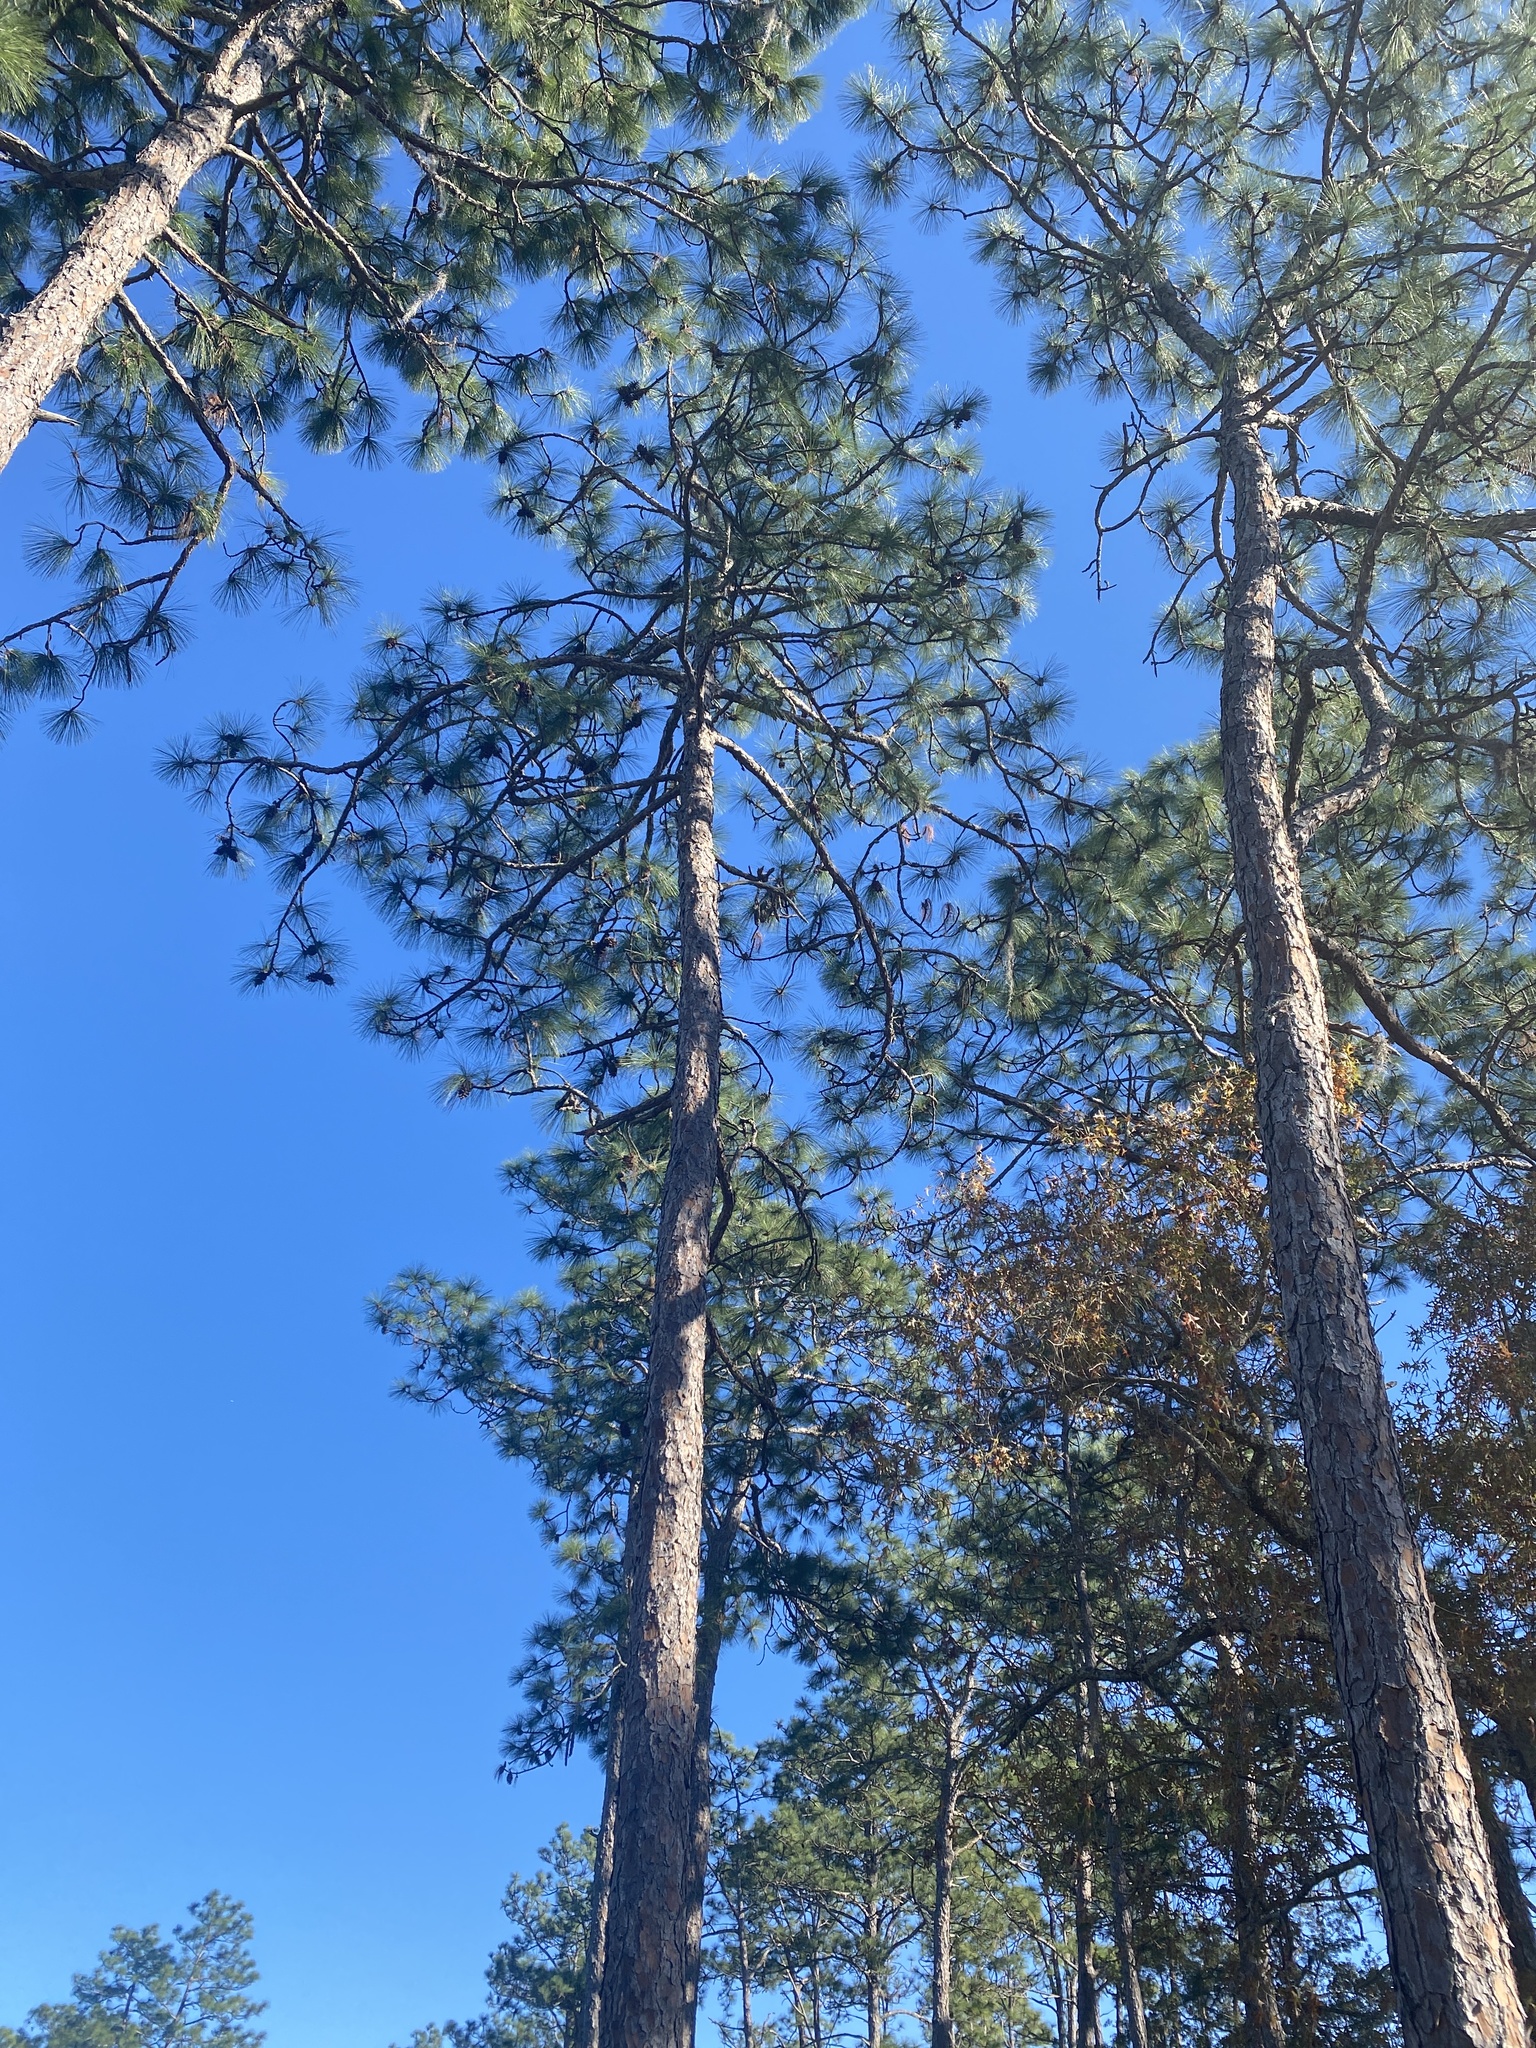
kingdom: Plantae
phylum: Tracheophyta
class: Pinopsida
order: Pinales
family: Pinaceae
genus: Pinus
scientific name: Pinus palustris
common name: Longleaf pine
